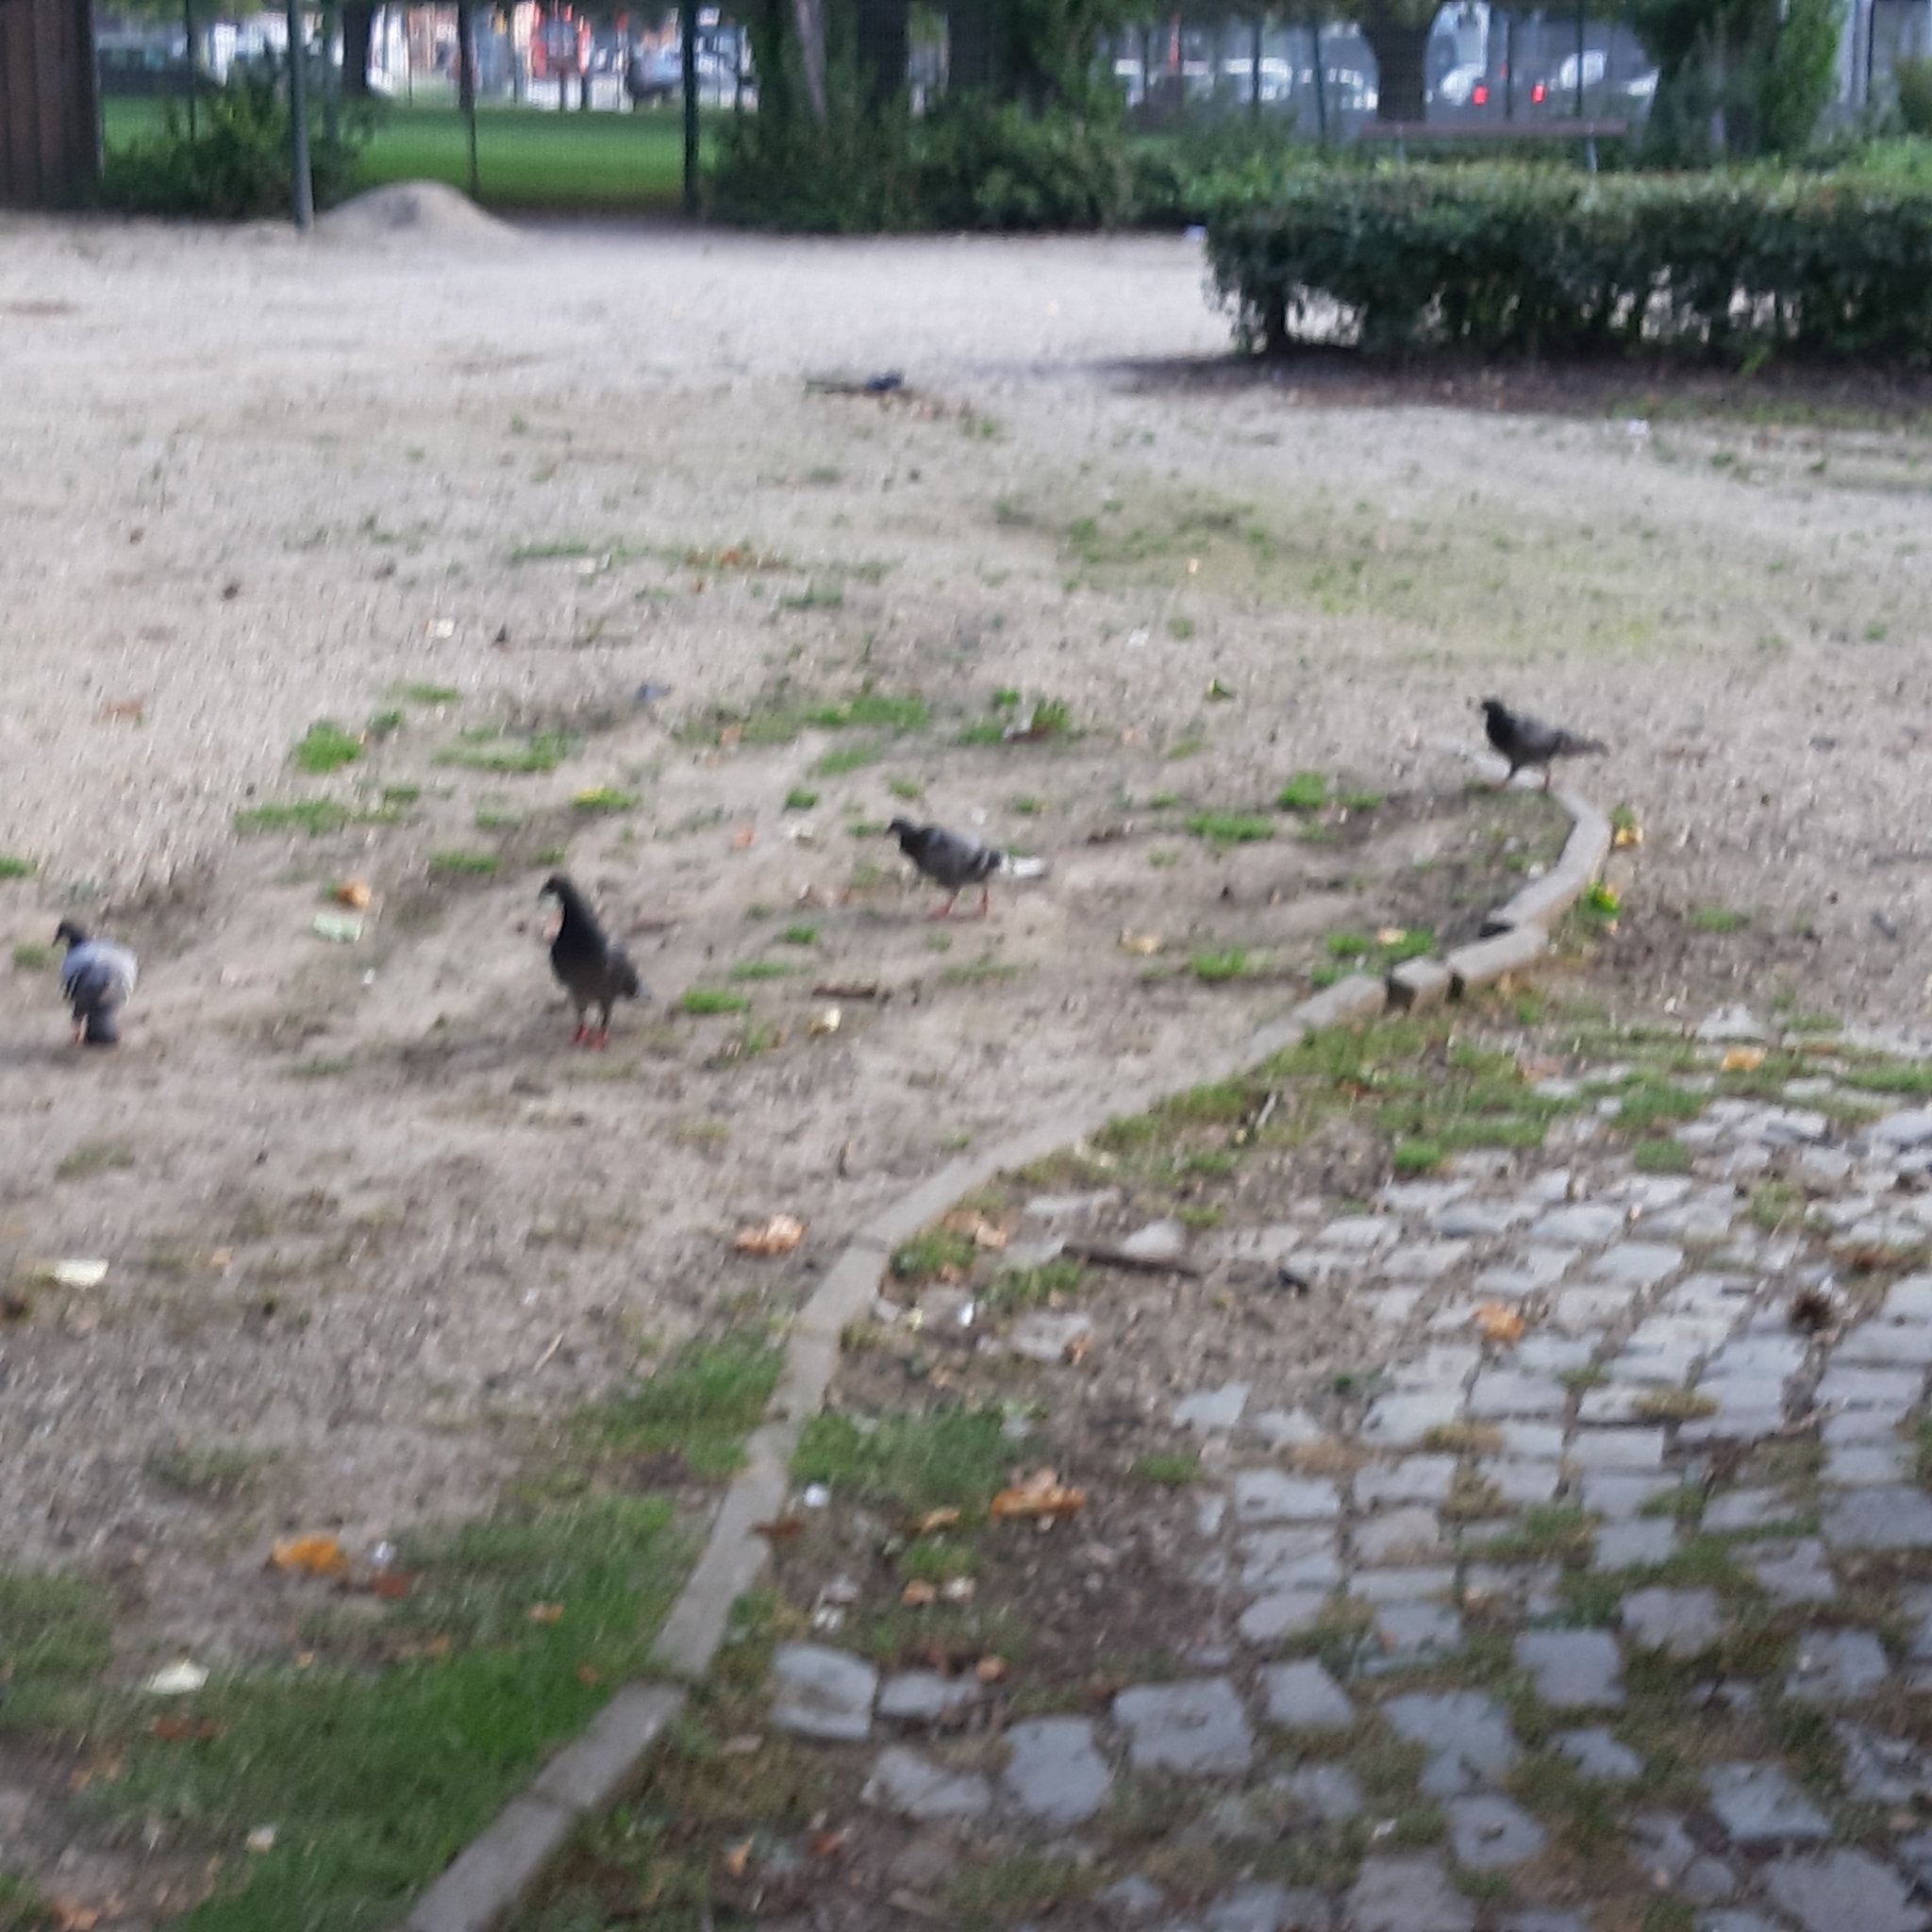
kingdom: Animalia
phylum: Chordata
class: Aves
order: Columbiformes
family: Columbidae
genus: Columba
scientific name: Columba livia
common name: Rock pigeon
